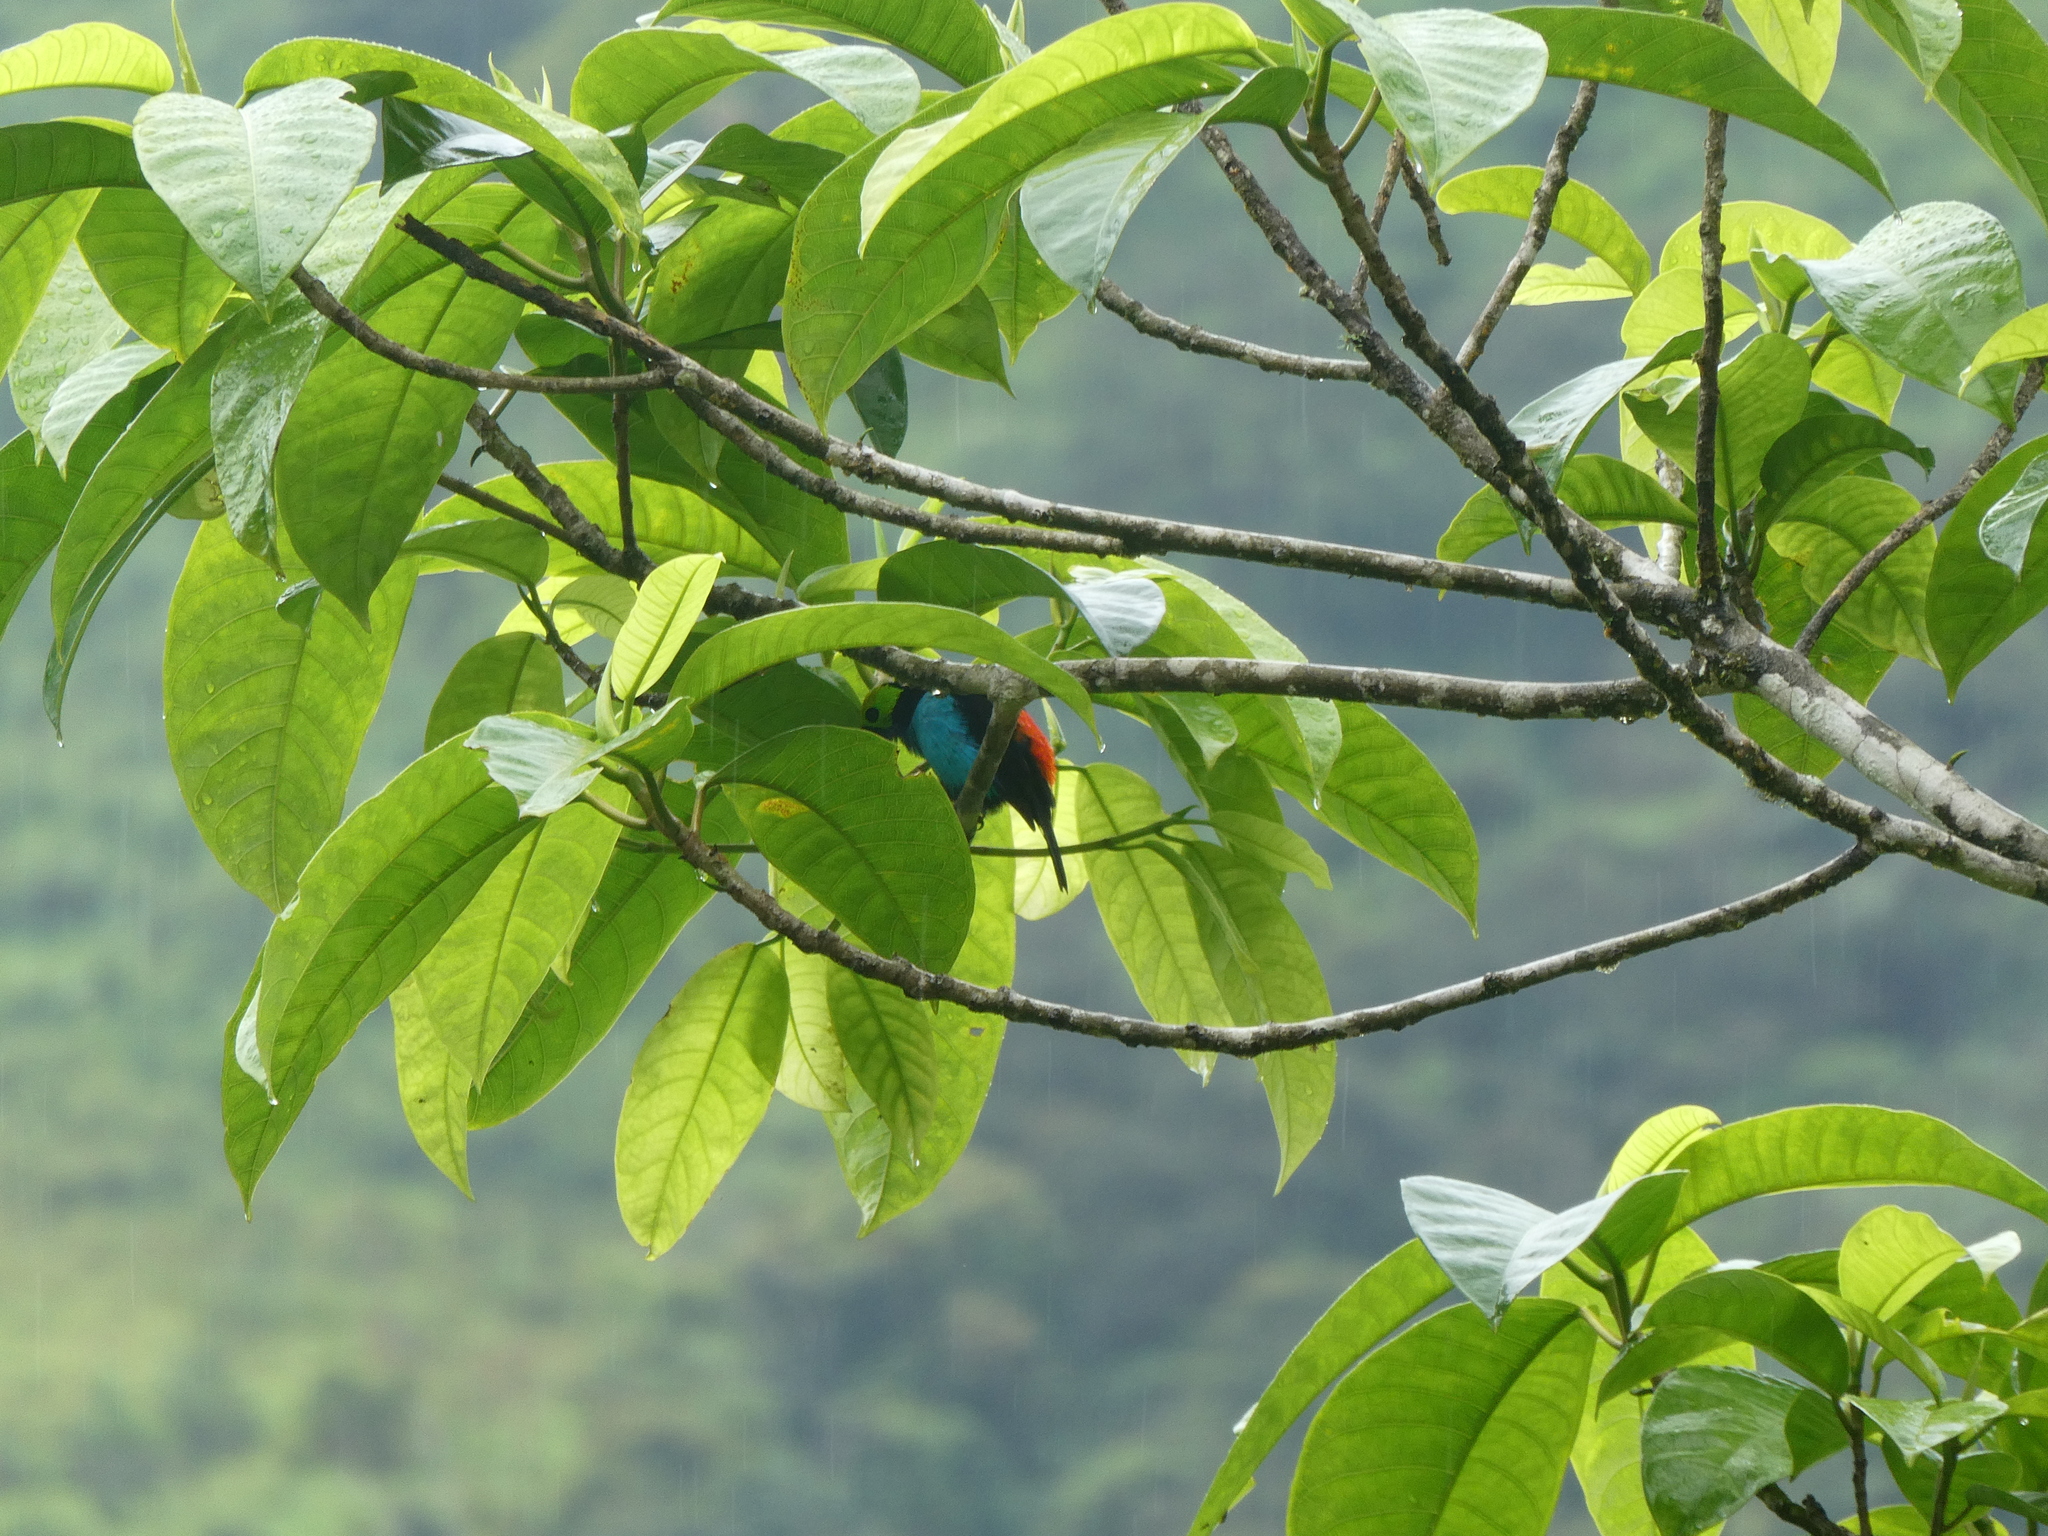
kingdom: Animalia
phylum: Chordata
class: Aves
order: Passeriformes
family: Thraupidae
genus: Tangara
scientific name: Tangara chilensis
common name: Paradise tanager
